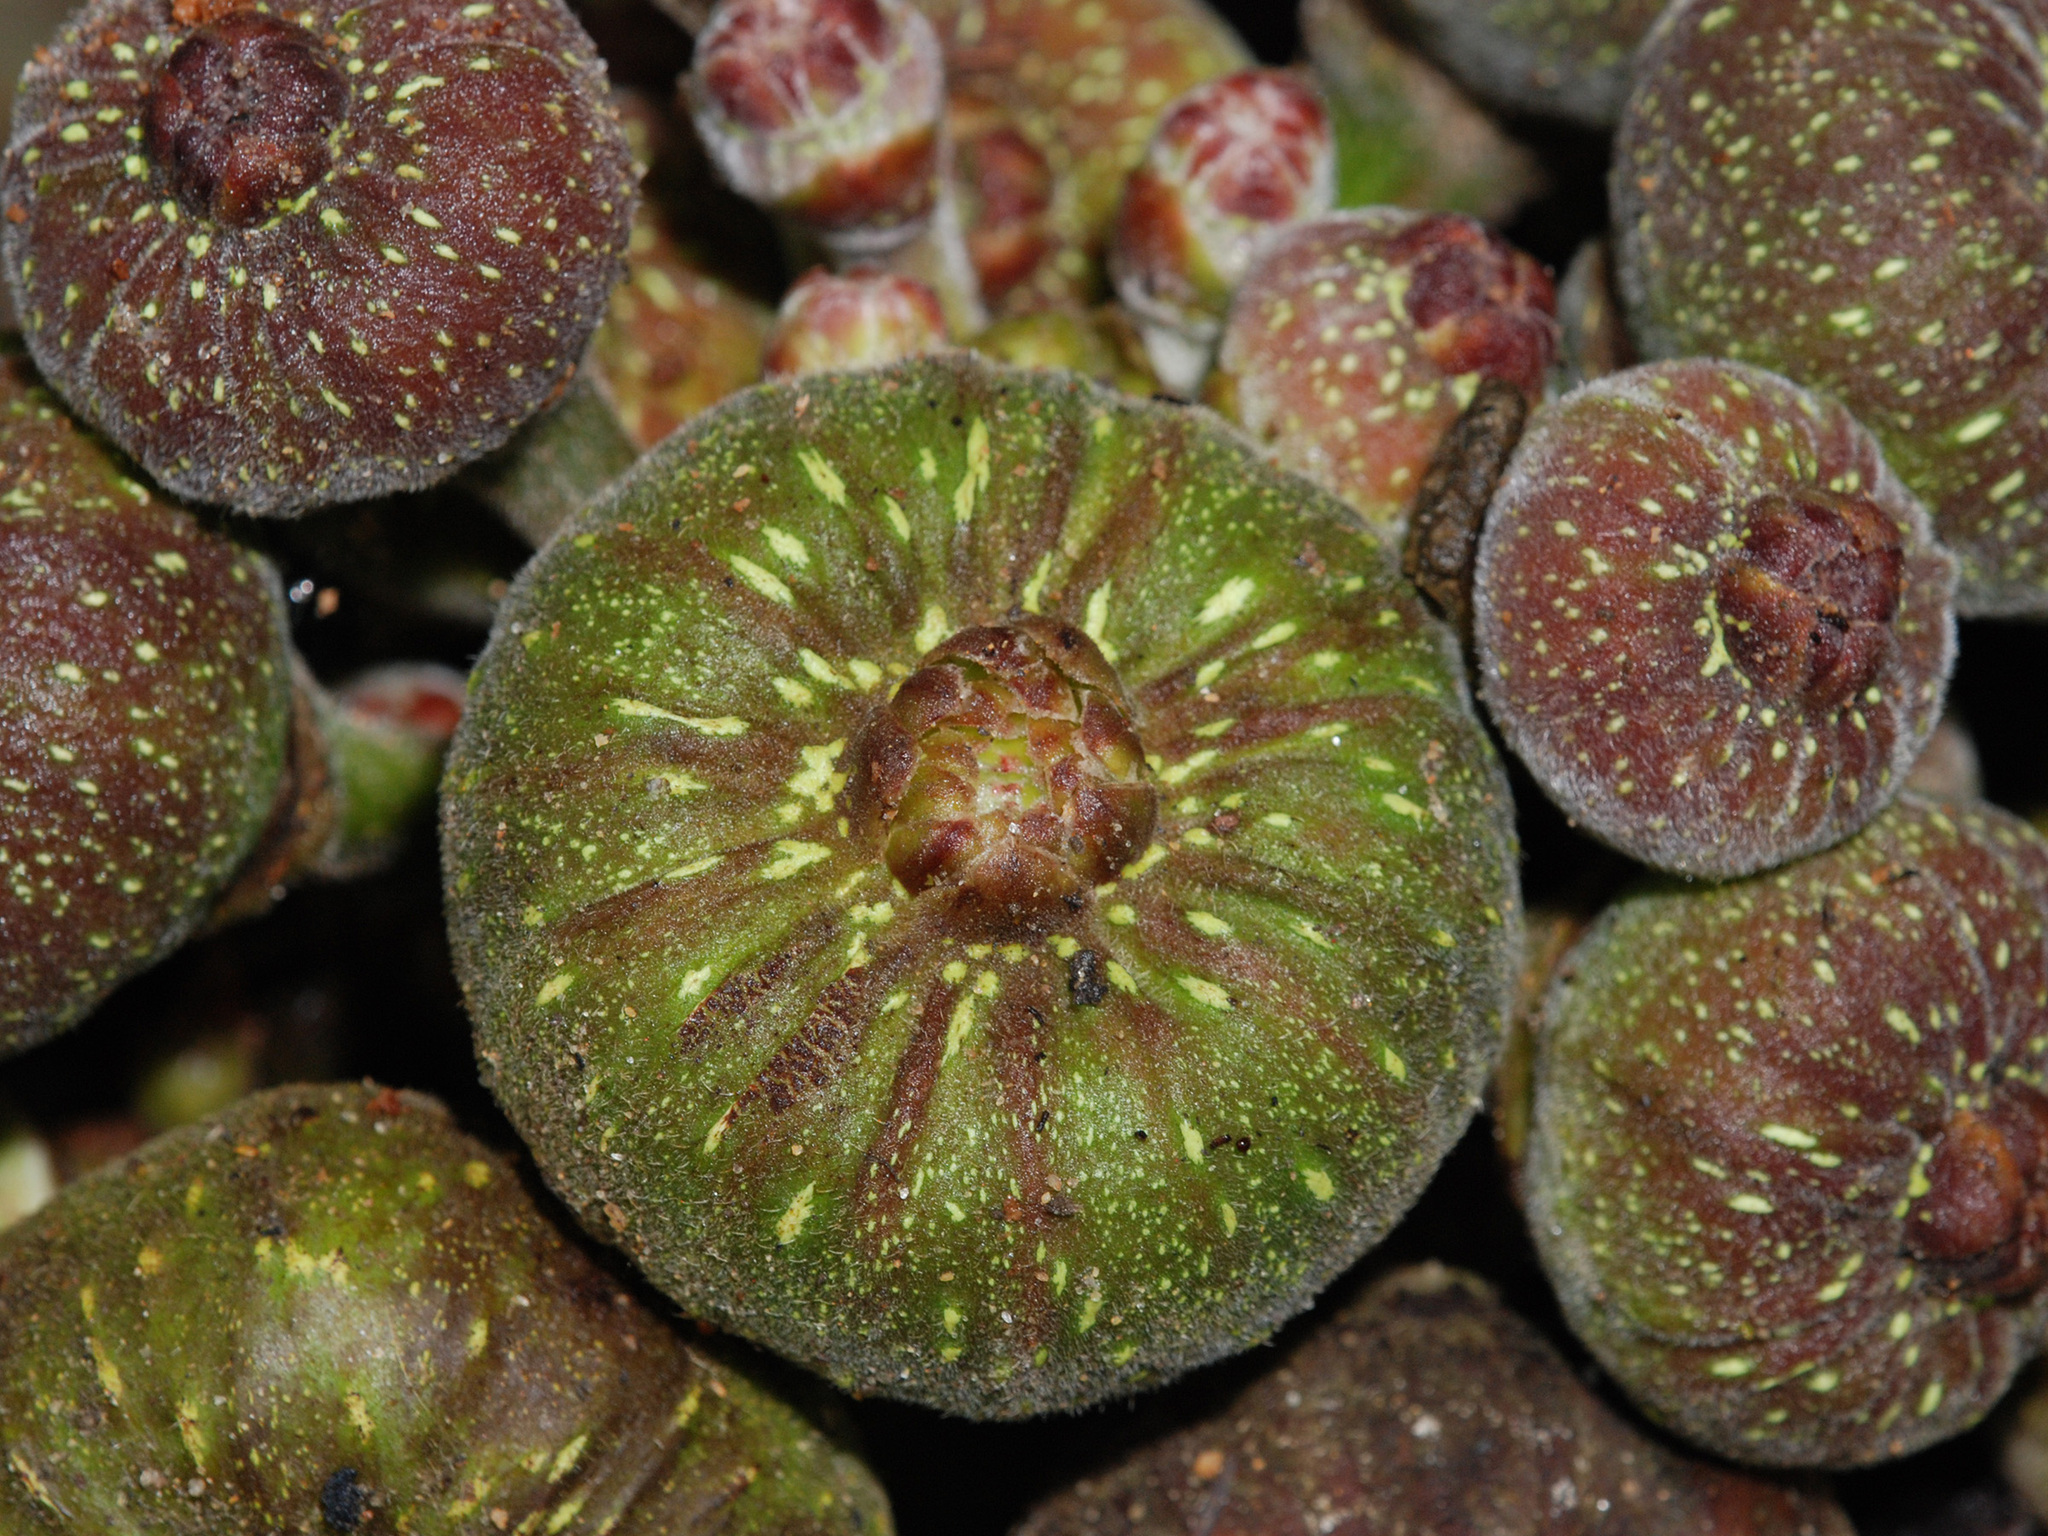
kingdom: Plantae
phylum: Tracheophyta
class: Magnoliopsida
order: Rosales
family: Moraceae
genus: Ficus
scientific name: Ficus auriculata
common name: Roxburgh fig
